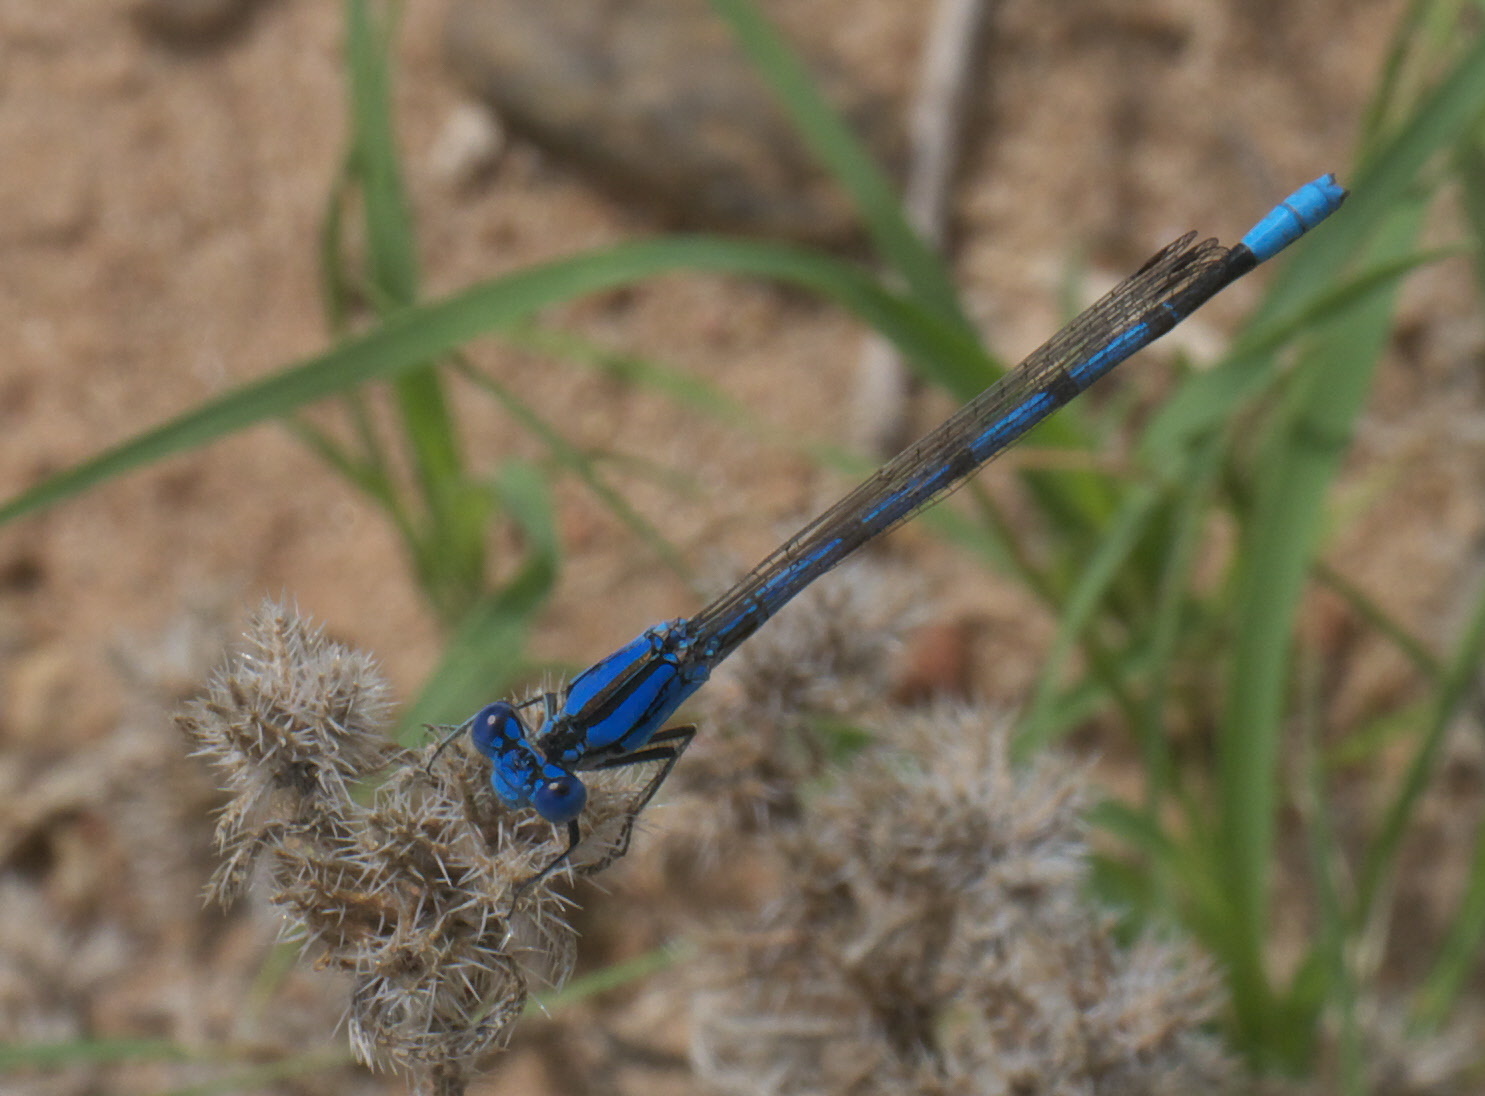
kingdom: Animalia
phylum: Arthropoda
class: Insecta
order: Odonata
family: Coenagrionidae
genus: Argia
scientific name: Argia nahuana
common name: Aztec dancer
